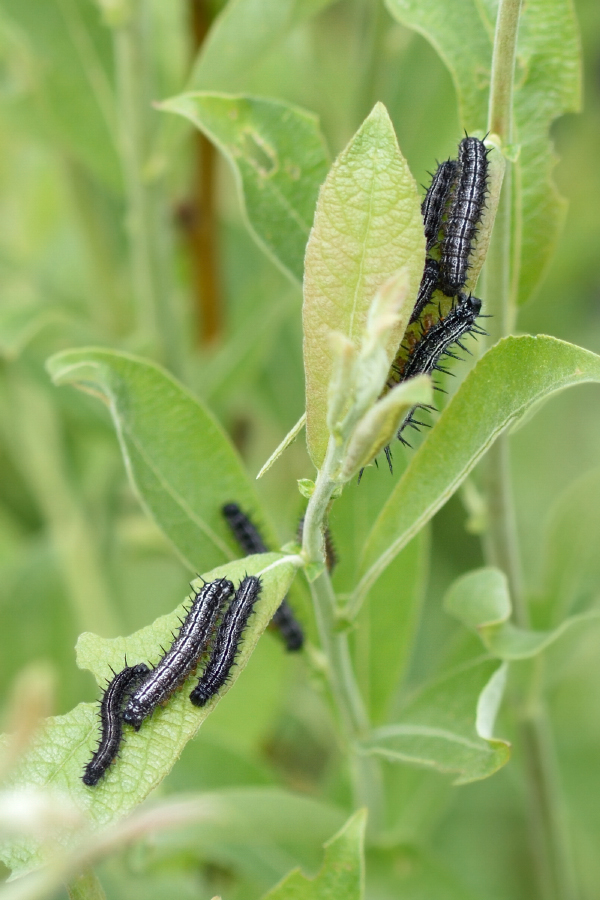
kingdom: Animalia
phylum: Arthropoda
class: Insecta
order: Lepidoptera
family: Nymphalidae
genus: Nymphalis
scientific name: Nymphalis xanthomelas
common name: Scarce tortoiseshell
